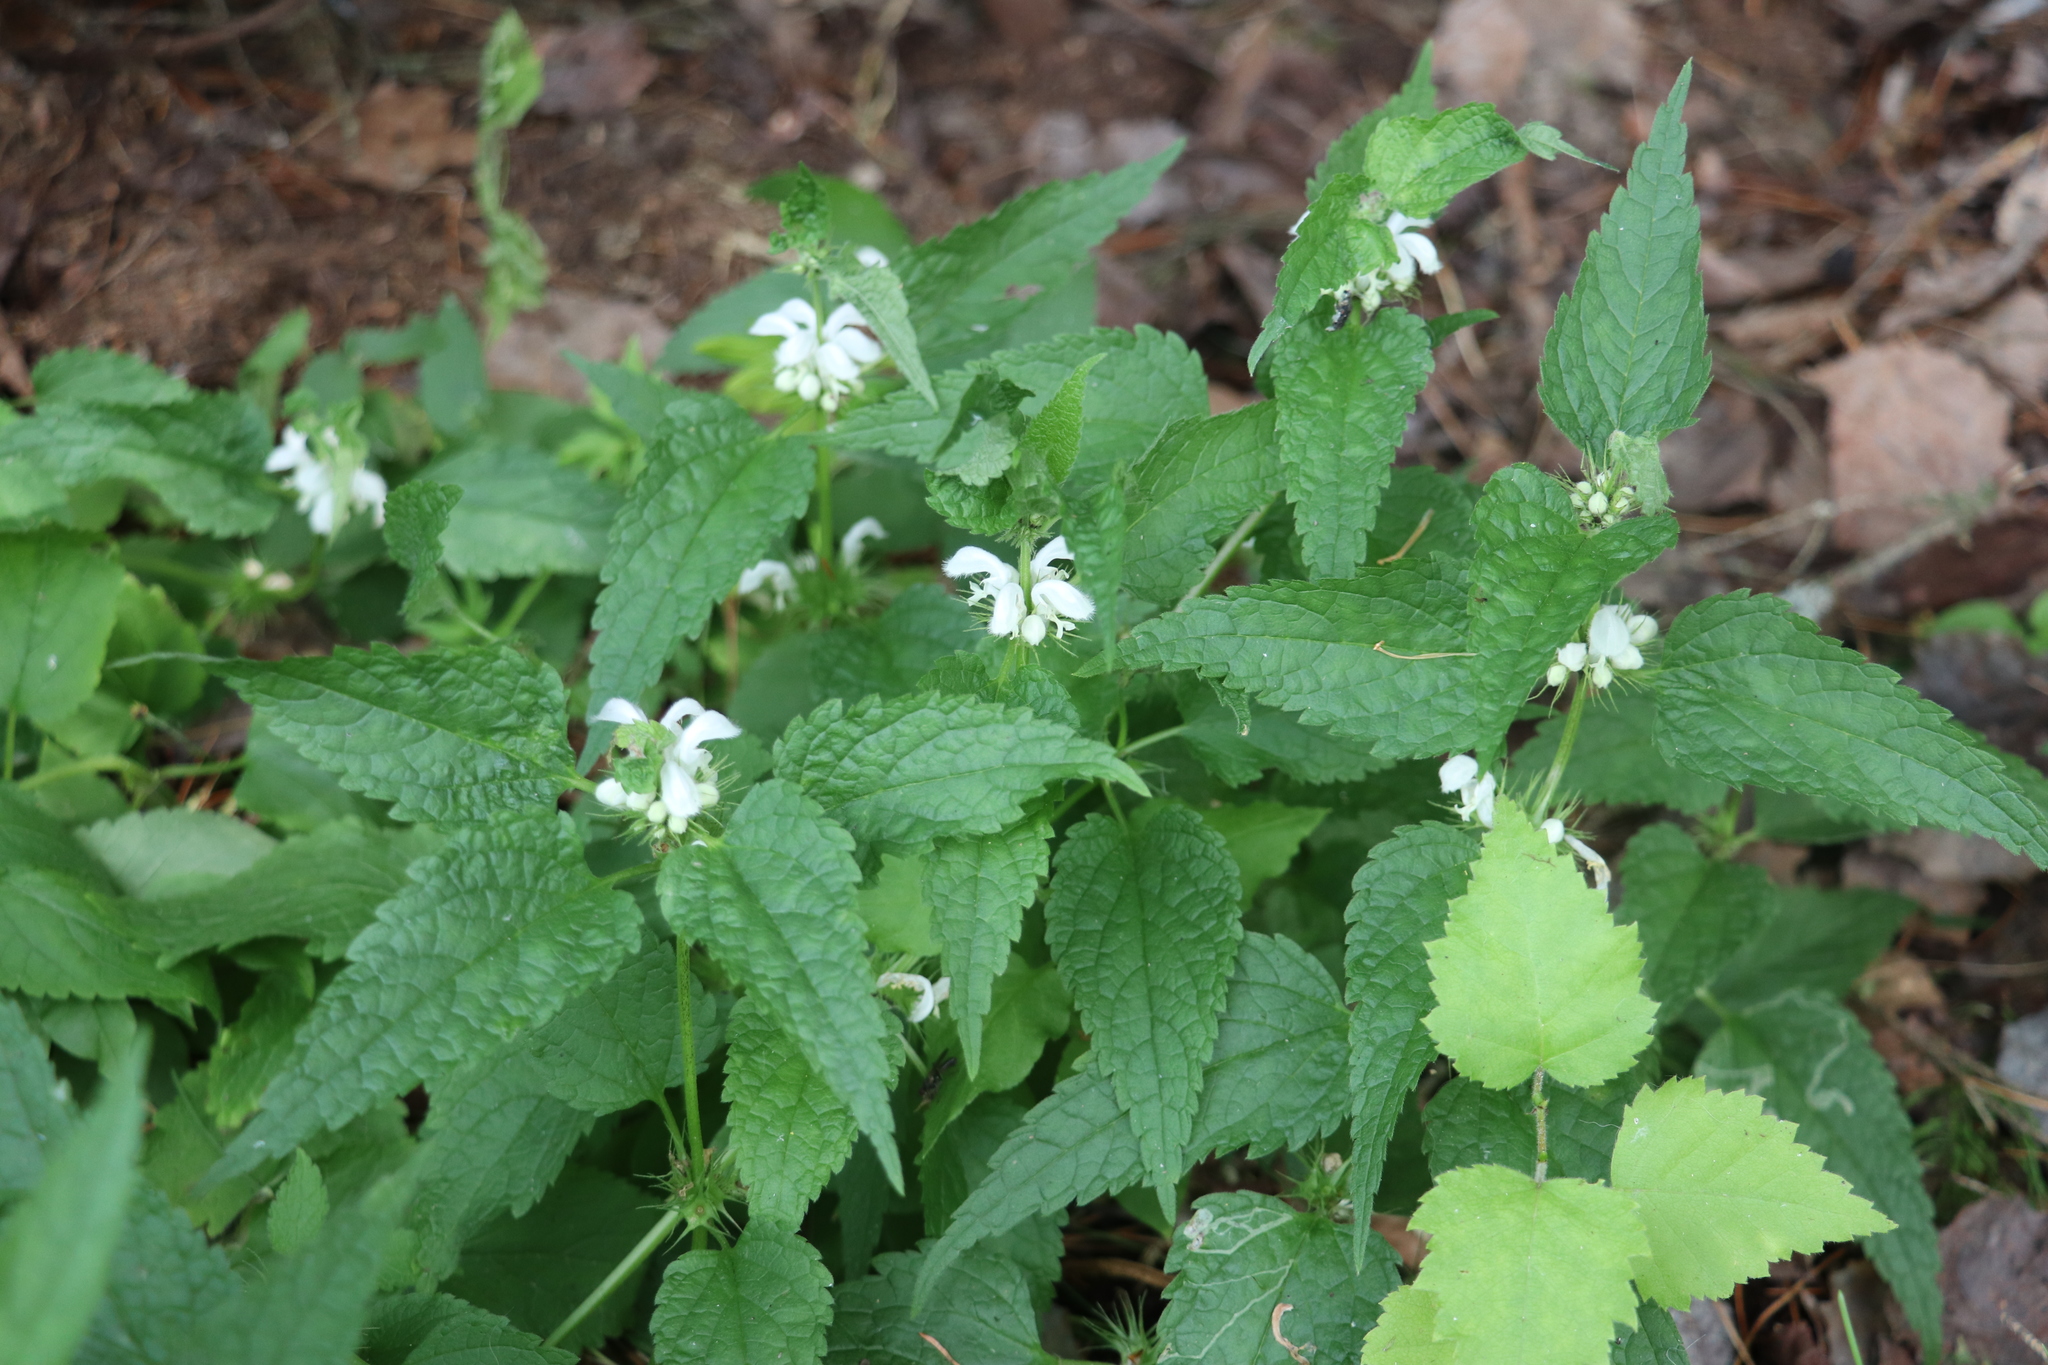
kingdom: Plantae
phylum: Tracheophyta
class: Magnoliopsida
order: Lamiales
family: Lamiaceae
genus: Lamium
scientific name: Lamium album
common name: White dead-nettle
